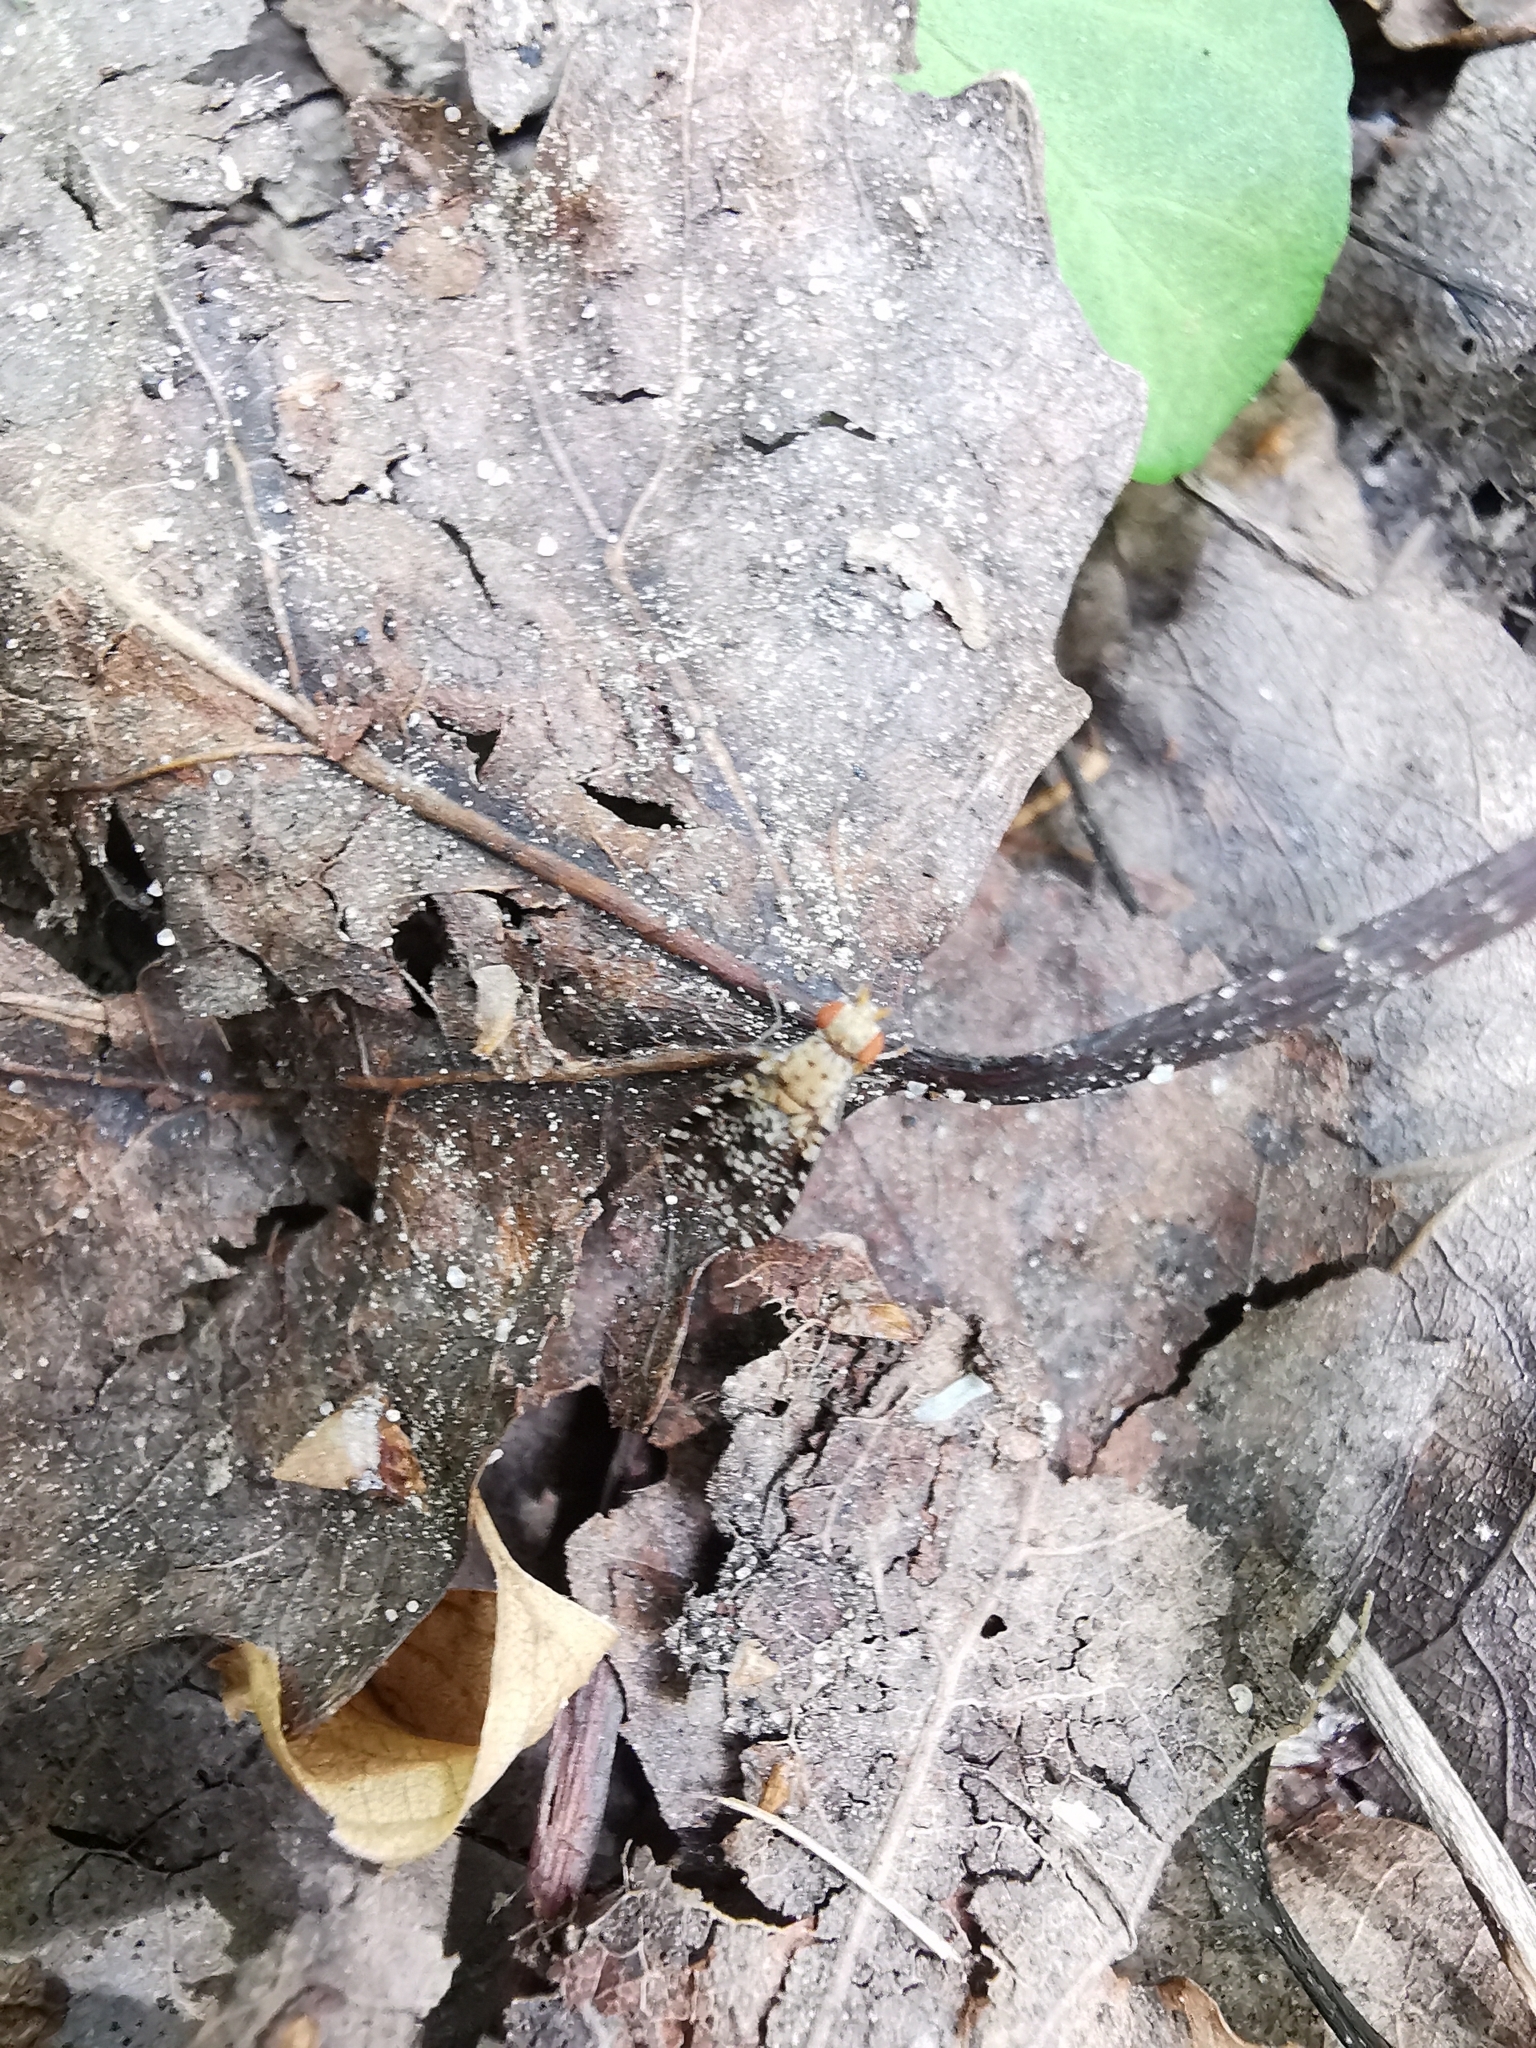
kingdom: Animalia
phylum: Arthropoda
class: Insecta
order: Diptera
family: Sciomyzidae
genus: Trypetoptera
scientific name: Trypetoptera punctulata
